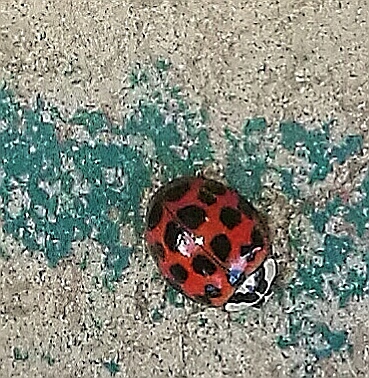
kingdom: Animalia
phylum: Arthropoda
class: Insecta
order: Coleoptera
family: Coccinellidae
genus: Harmonia
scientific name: Harmonia axyridis
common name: Harlequin ladybird
